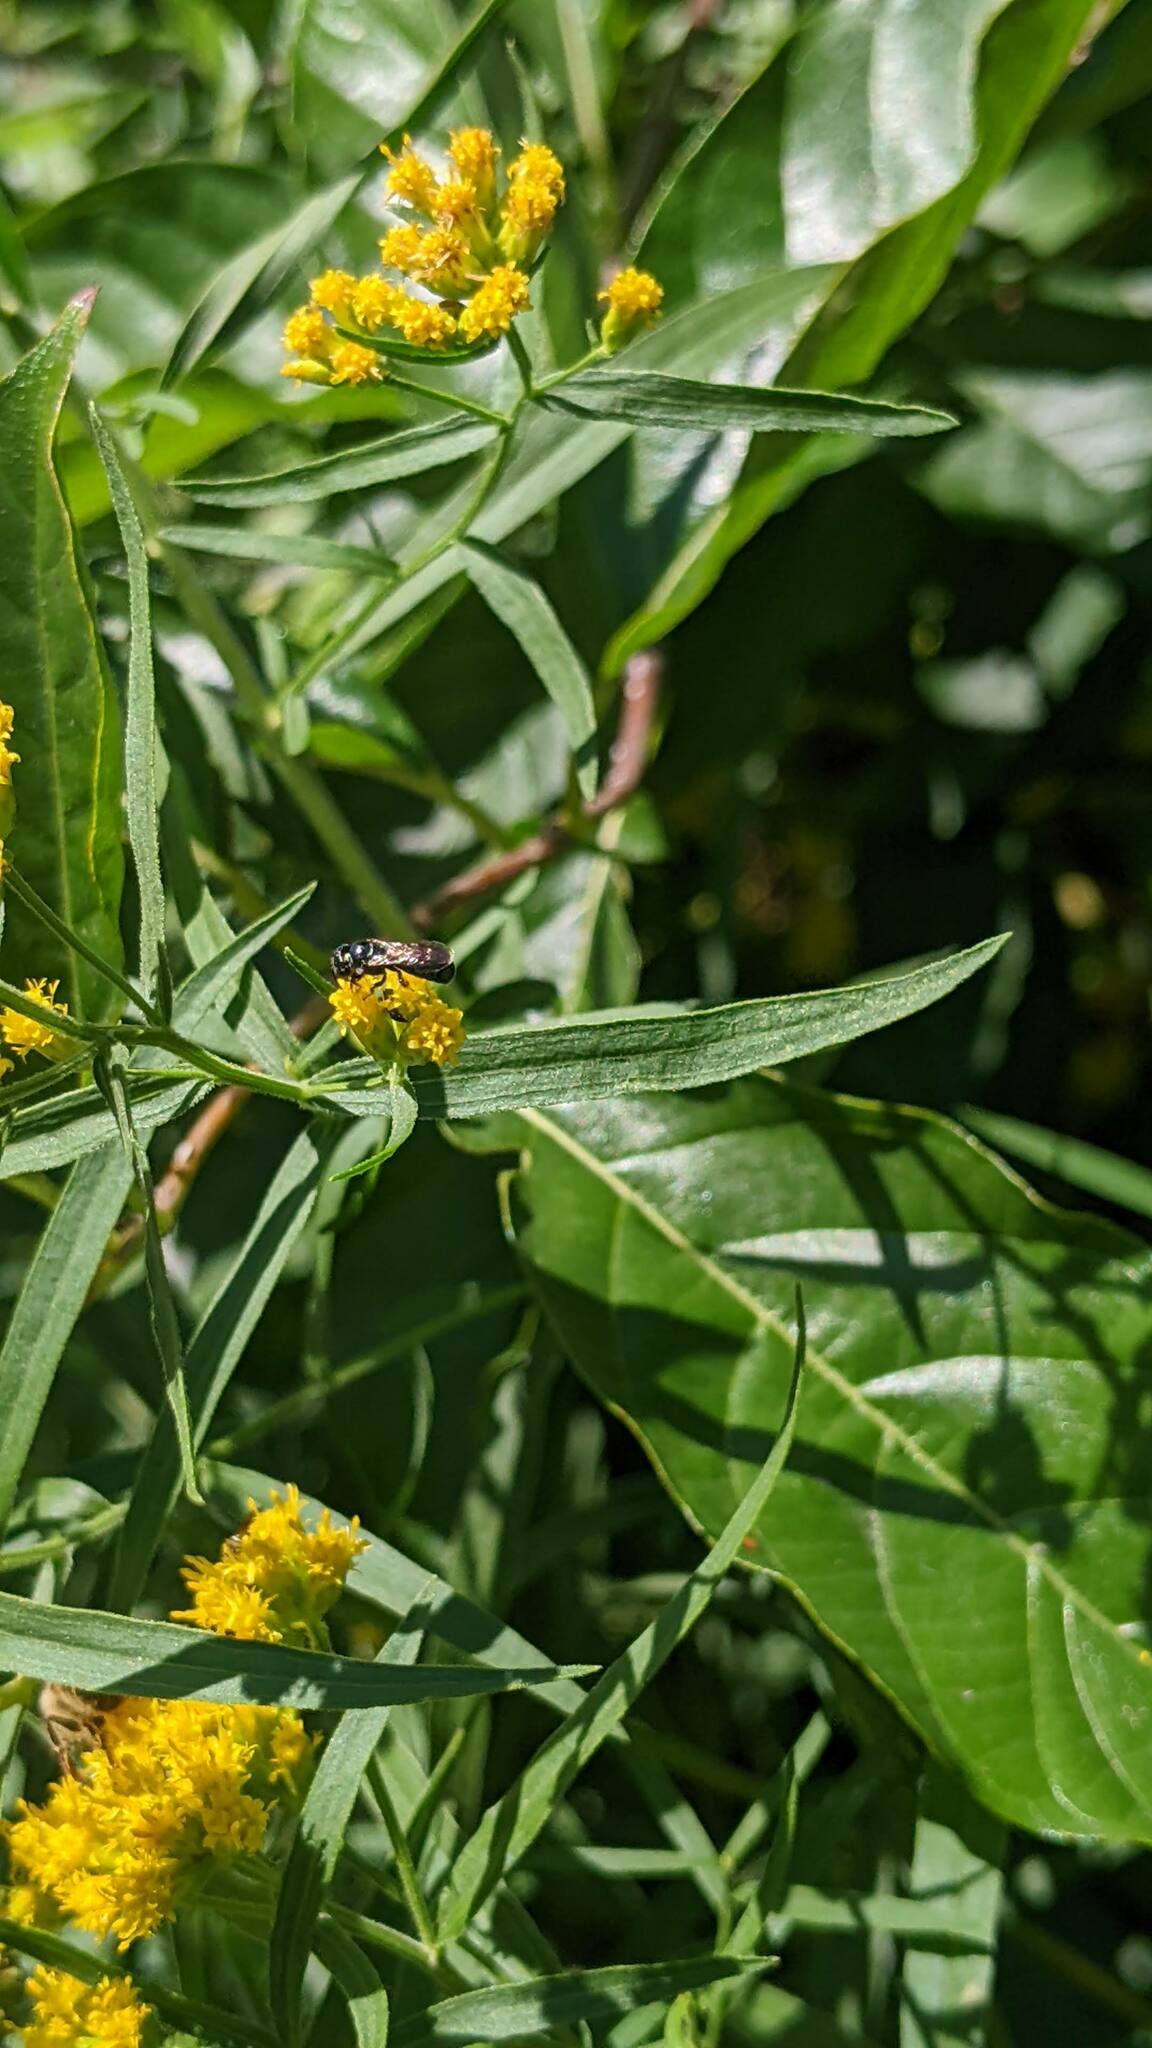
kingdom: Animalia
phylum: Arthropoda
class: Insecta
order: Hymenoptera
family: Apidae
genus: Zadontomerus
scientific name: Zadontomerus
